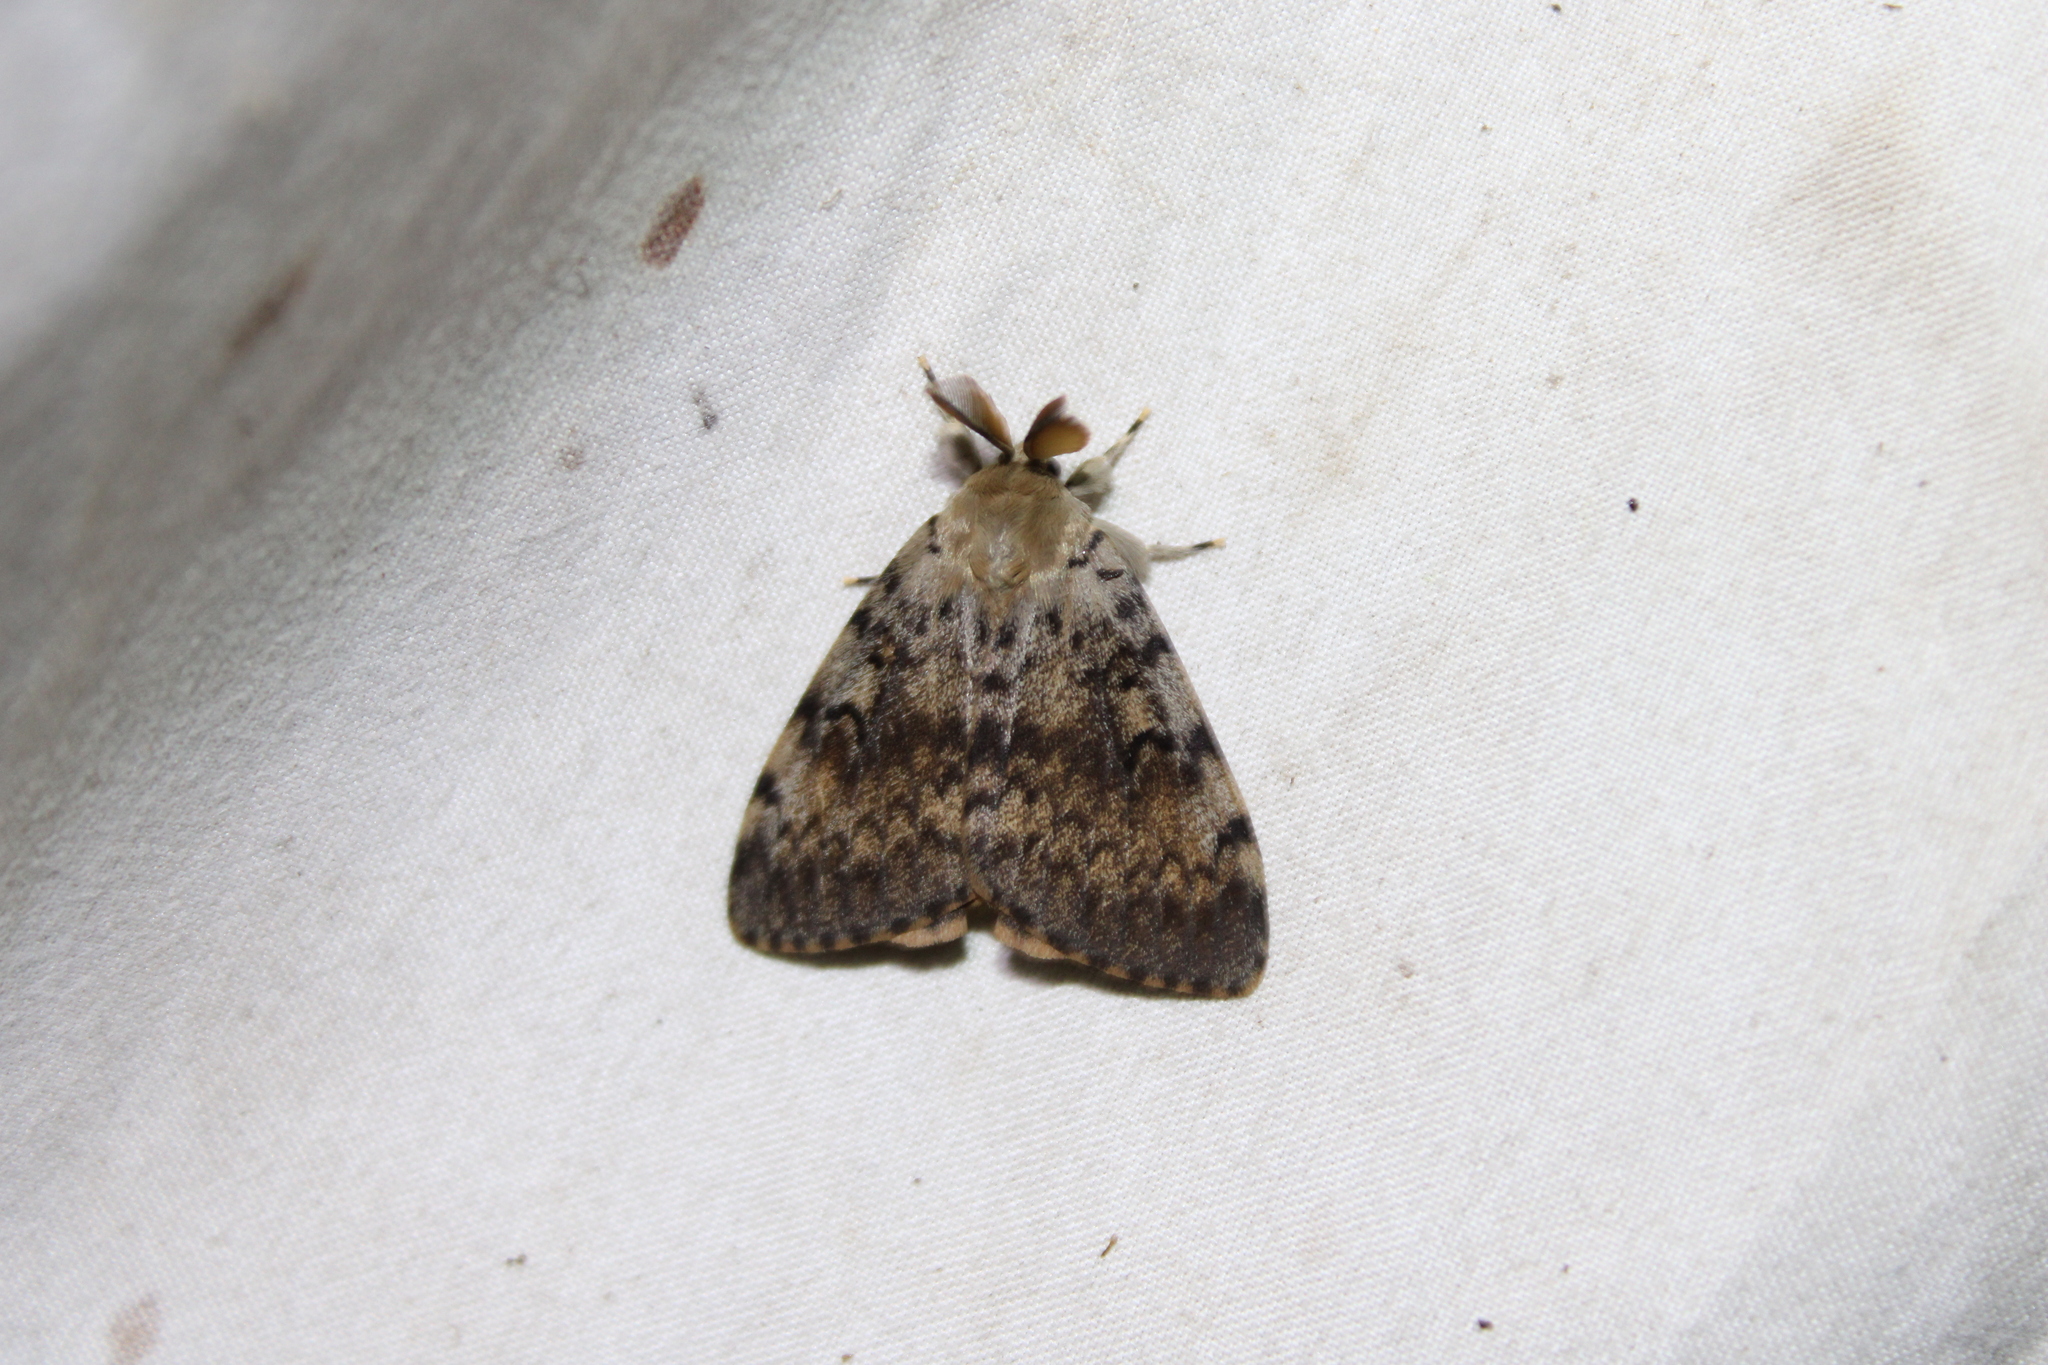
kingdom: Animalia
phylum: Arthropoda
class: Insecta
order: Lepidoptera
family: Erebidae
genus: Lymantria
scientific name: Lymantria dispar
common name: Gypsy moth
